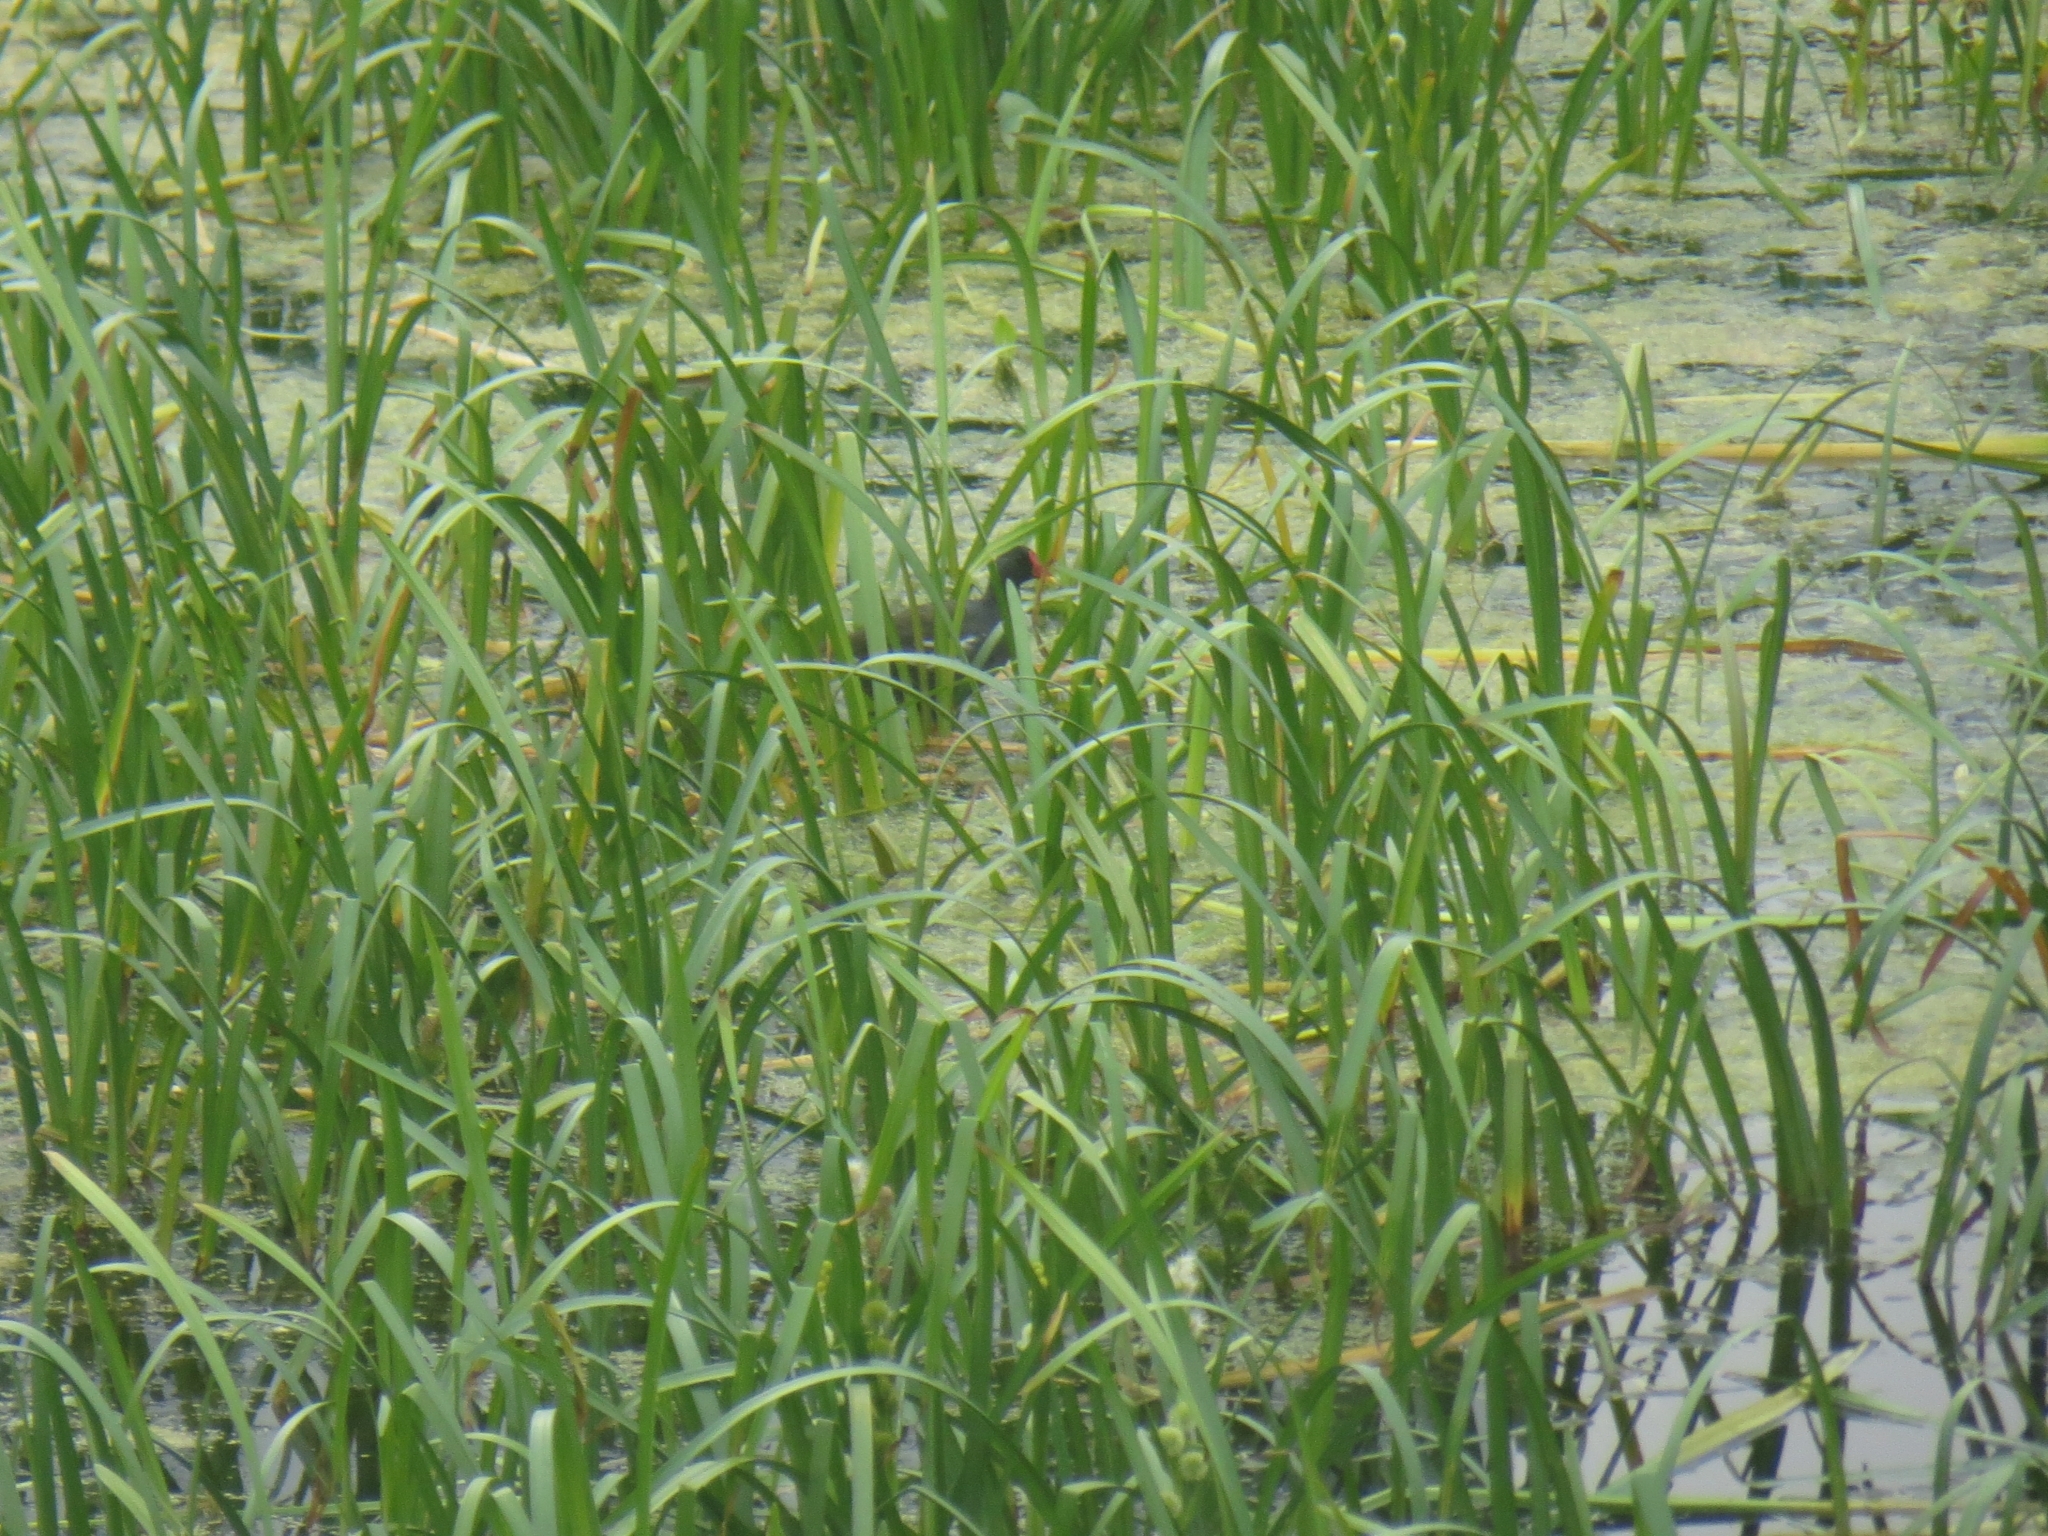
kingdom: Animalia
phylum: Chordata
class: Aves
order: Gruiformes
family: Rallidae
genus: Gallinula
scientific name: Gallinula chloropus
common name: Common moorhen
